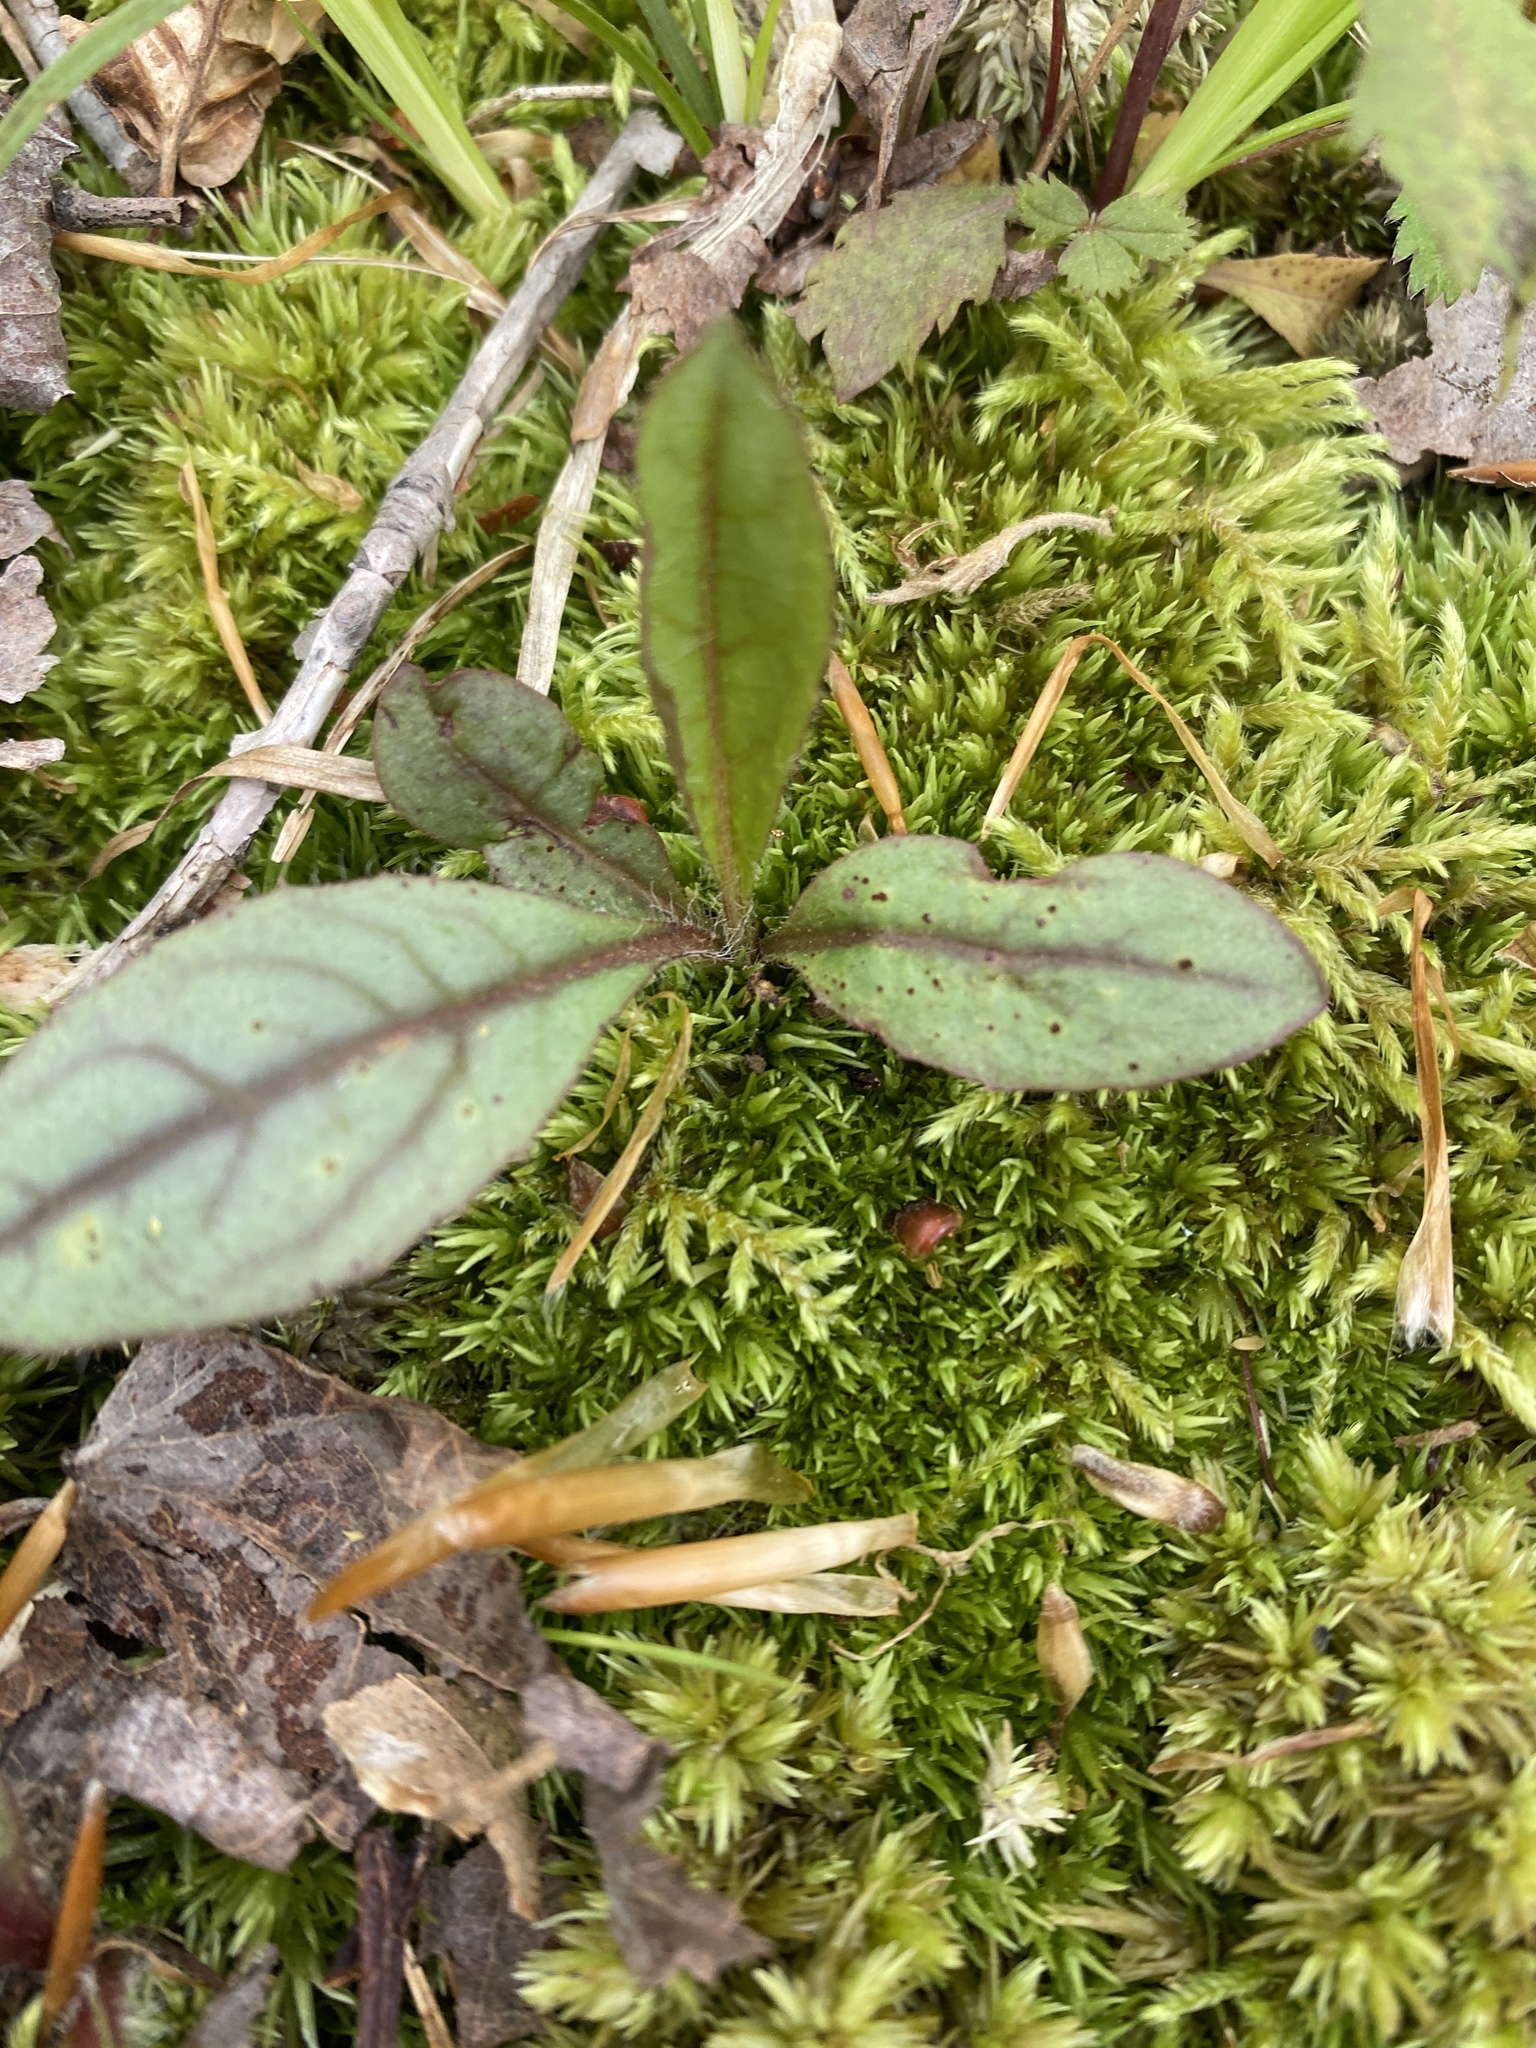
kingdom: Plantae
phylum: Tracheophyta
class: Magnoliopsida
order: Asterales
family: Asteraceae
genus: Hieracium
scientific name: Hieracium venosum
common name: Rattlesnake hawkweed
